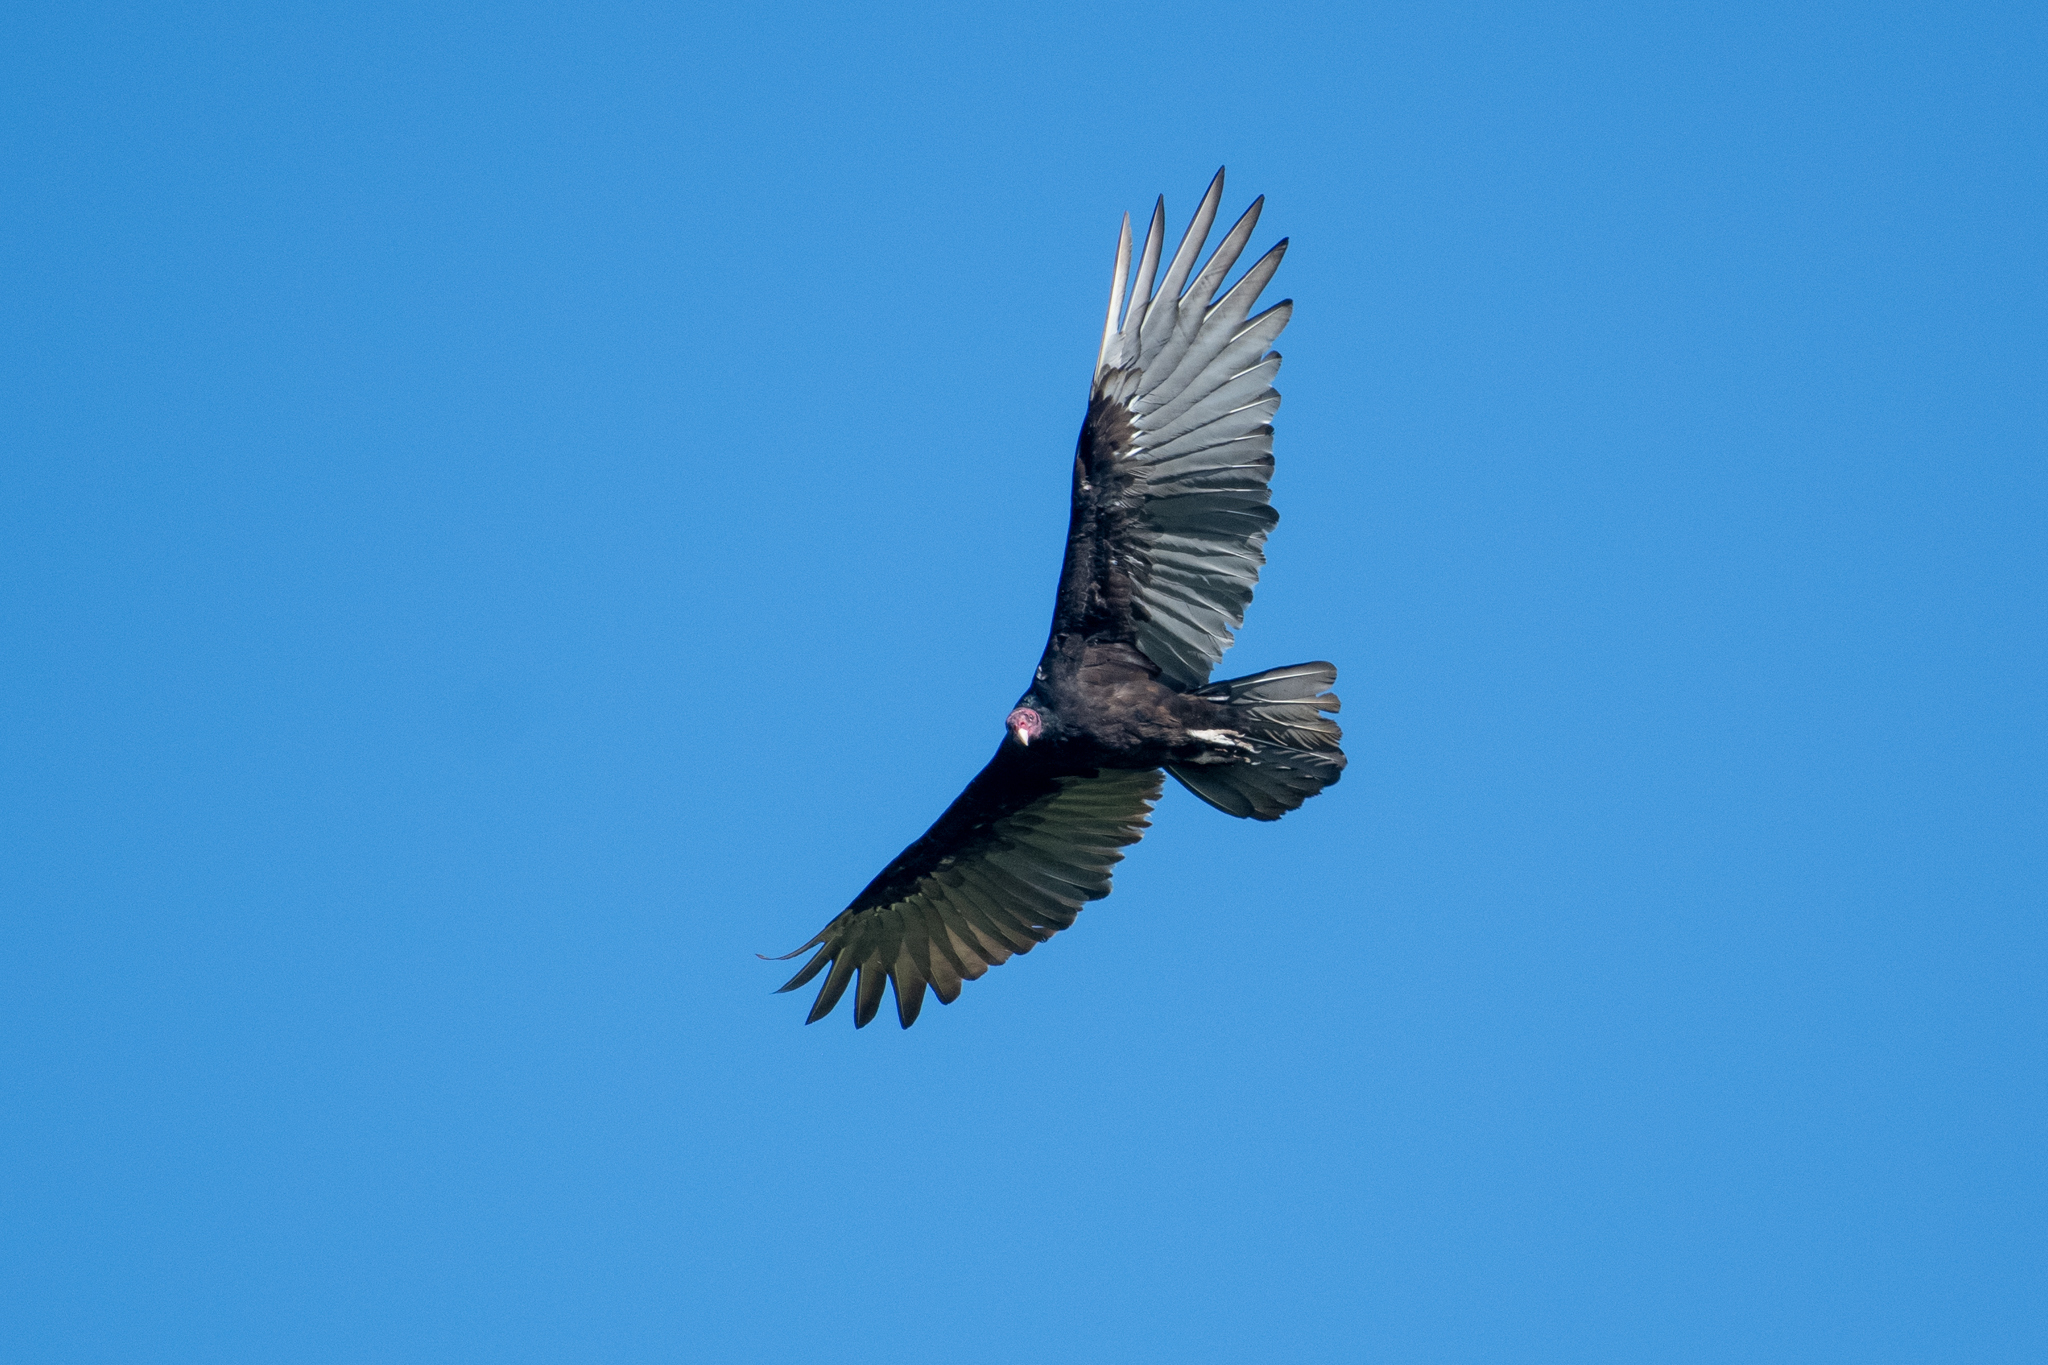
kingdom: Animalia
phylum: Chordata
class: Aves
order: Accipitriformes
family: Cathartidae
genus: Cathartes
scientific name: Cathartes aura
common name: Turkey vulture
